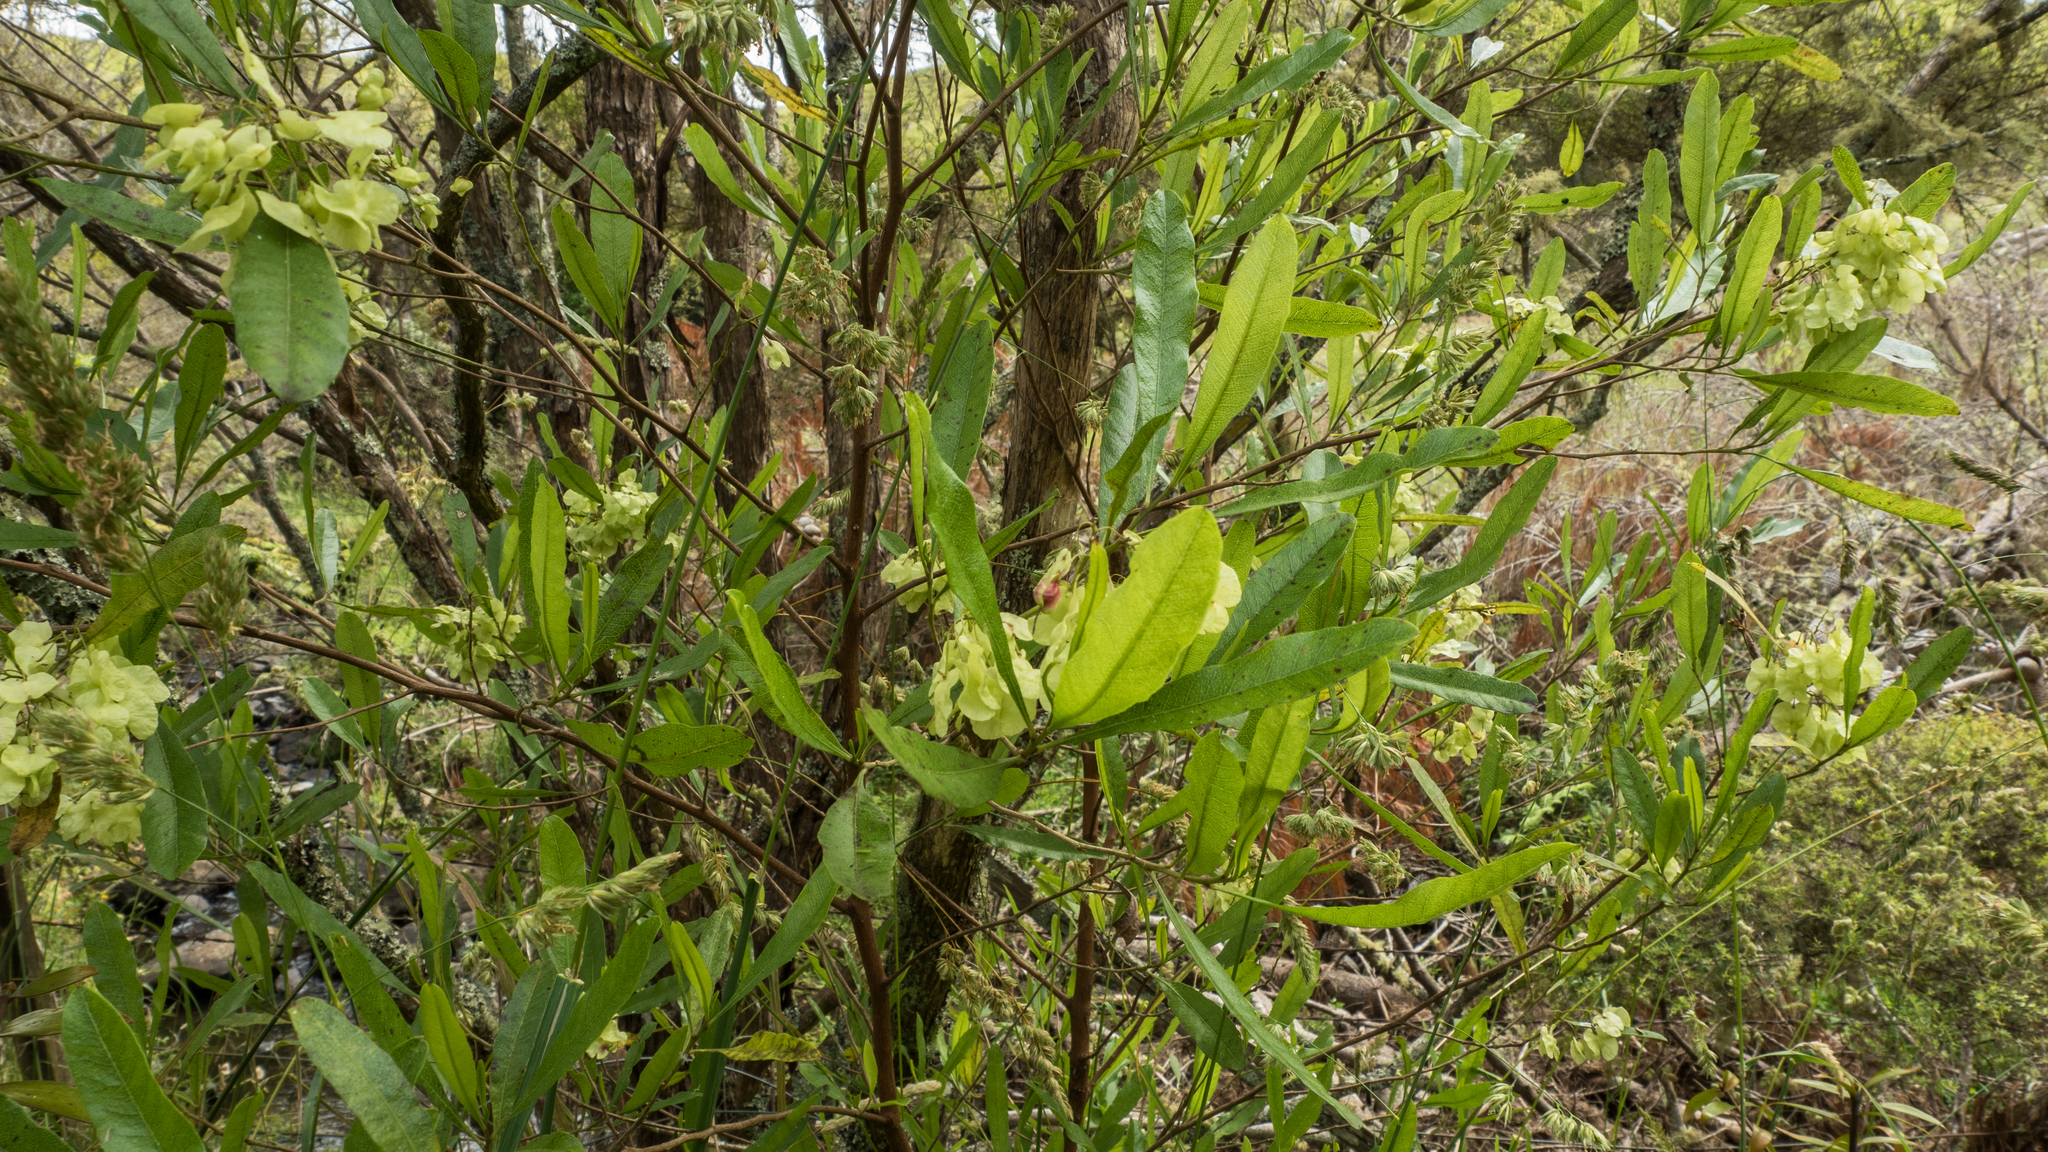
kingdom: Plantae
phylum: Tracheophyta
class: Magnoliopsida
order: Sapindales
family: Sapindaceae
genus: Dodonaea
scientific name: Dodonaea viscosa
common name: Hopbush
